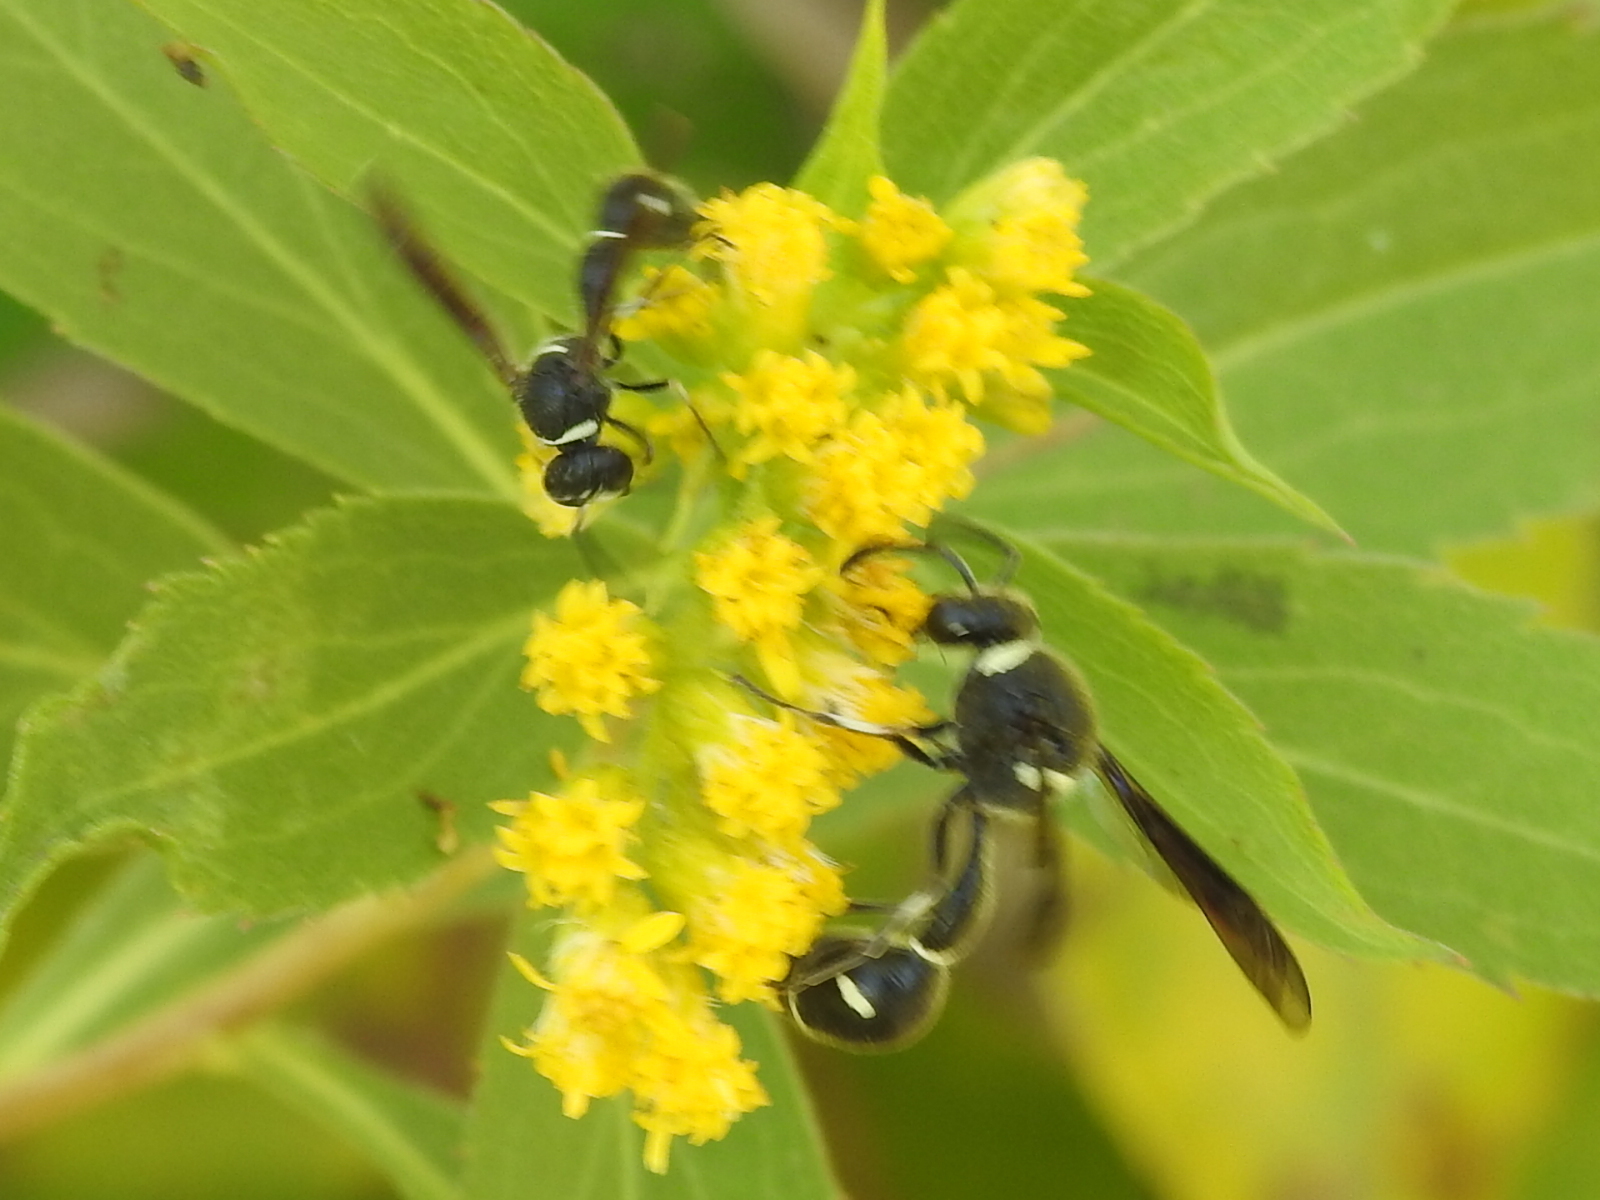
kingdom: Animalia
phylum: Arthropoda
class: Insecta
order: Hymenoptera
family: Vespidae
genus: Eumenes
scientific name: Eumenes fraternus
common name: Fraternal potter wasp
